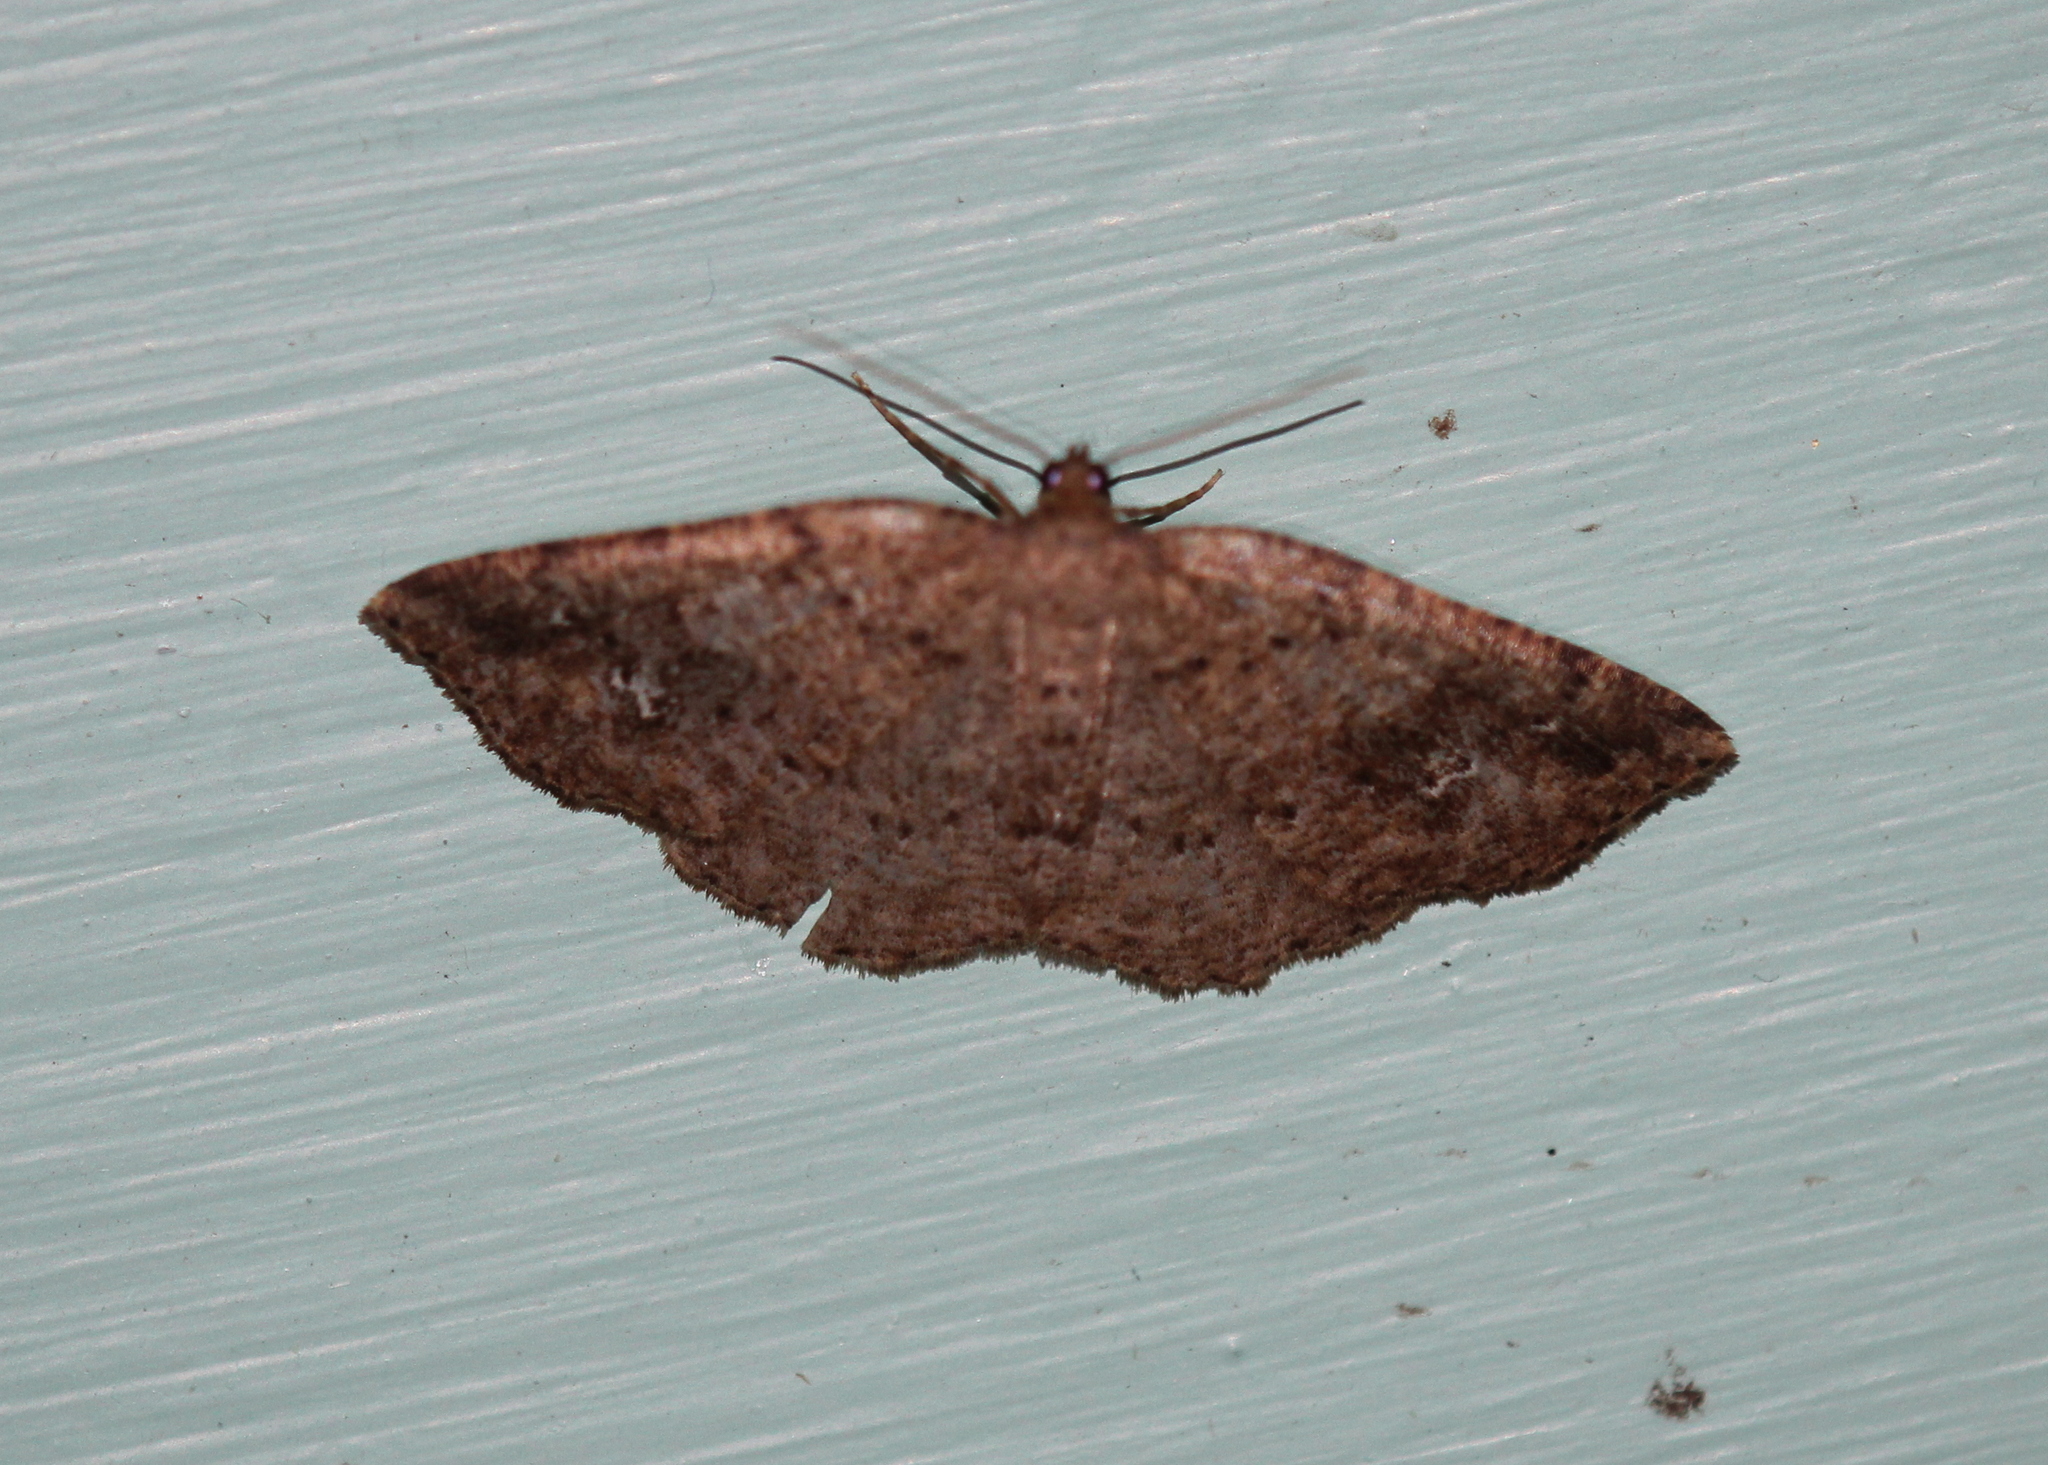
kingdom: Animalia
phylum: Arthropoda
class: Insecta
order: Lepidoptera
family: Geometridae
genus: Homochlodes
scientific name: Homochlodes fritillaria
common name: Pale homochlodes
